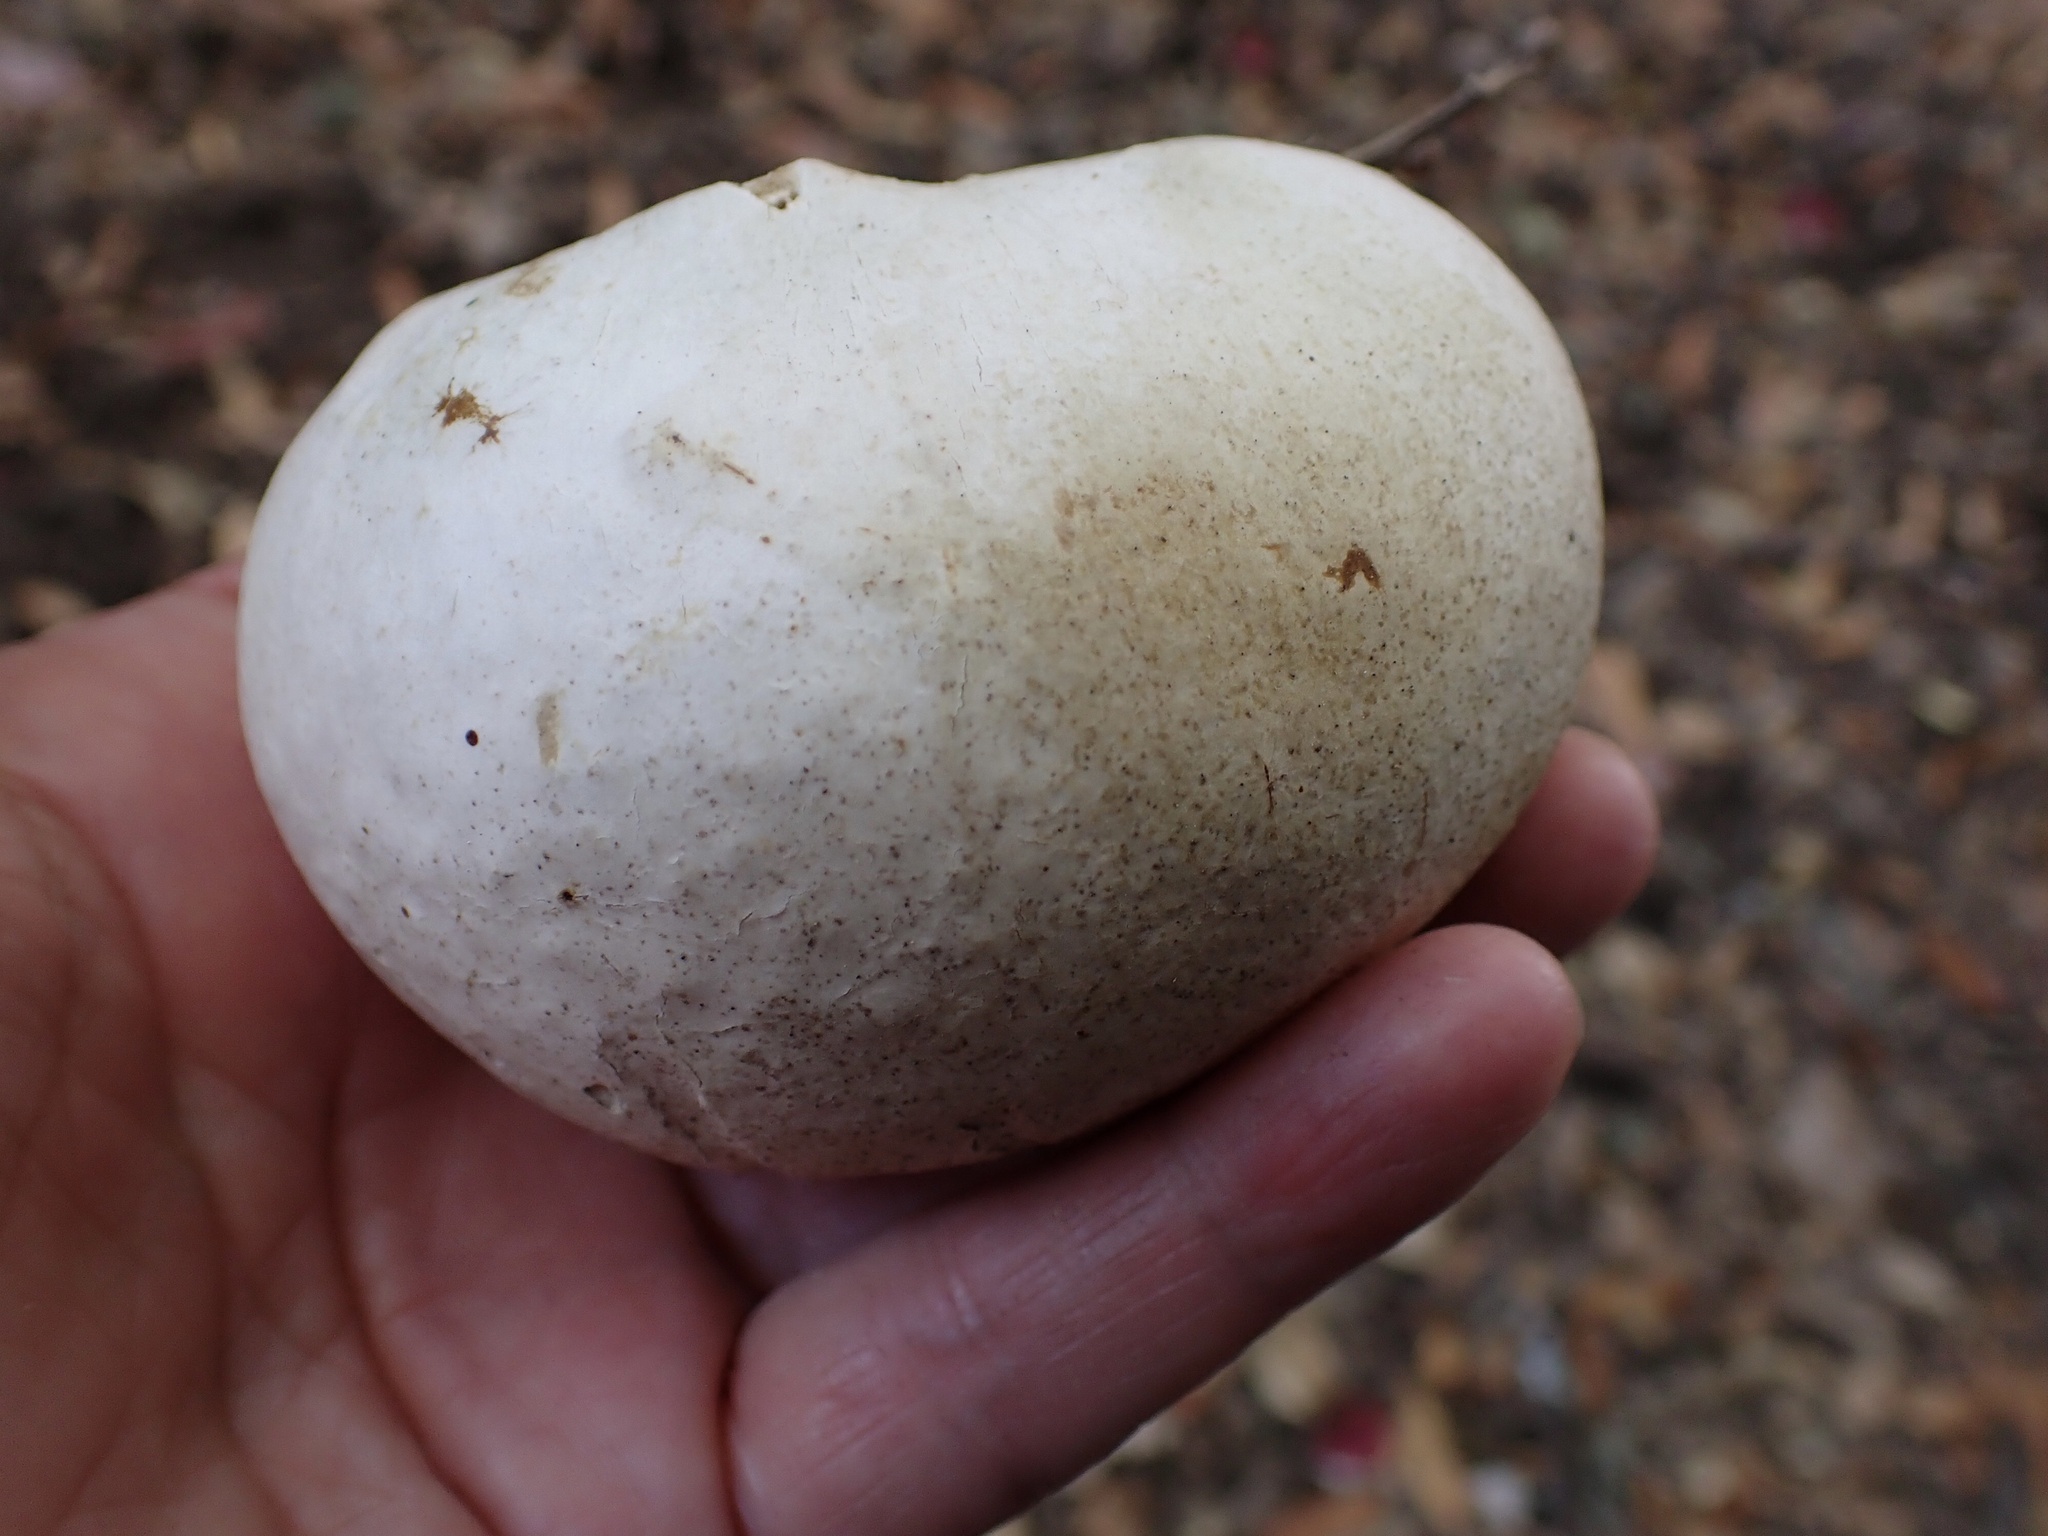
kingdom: Animalia
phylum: Arthropoda
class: Insecta
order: Hymenoptera
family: Cynipidae
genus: Andricus
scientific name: Andricus quercuscalifornicus
